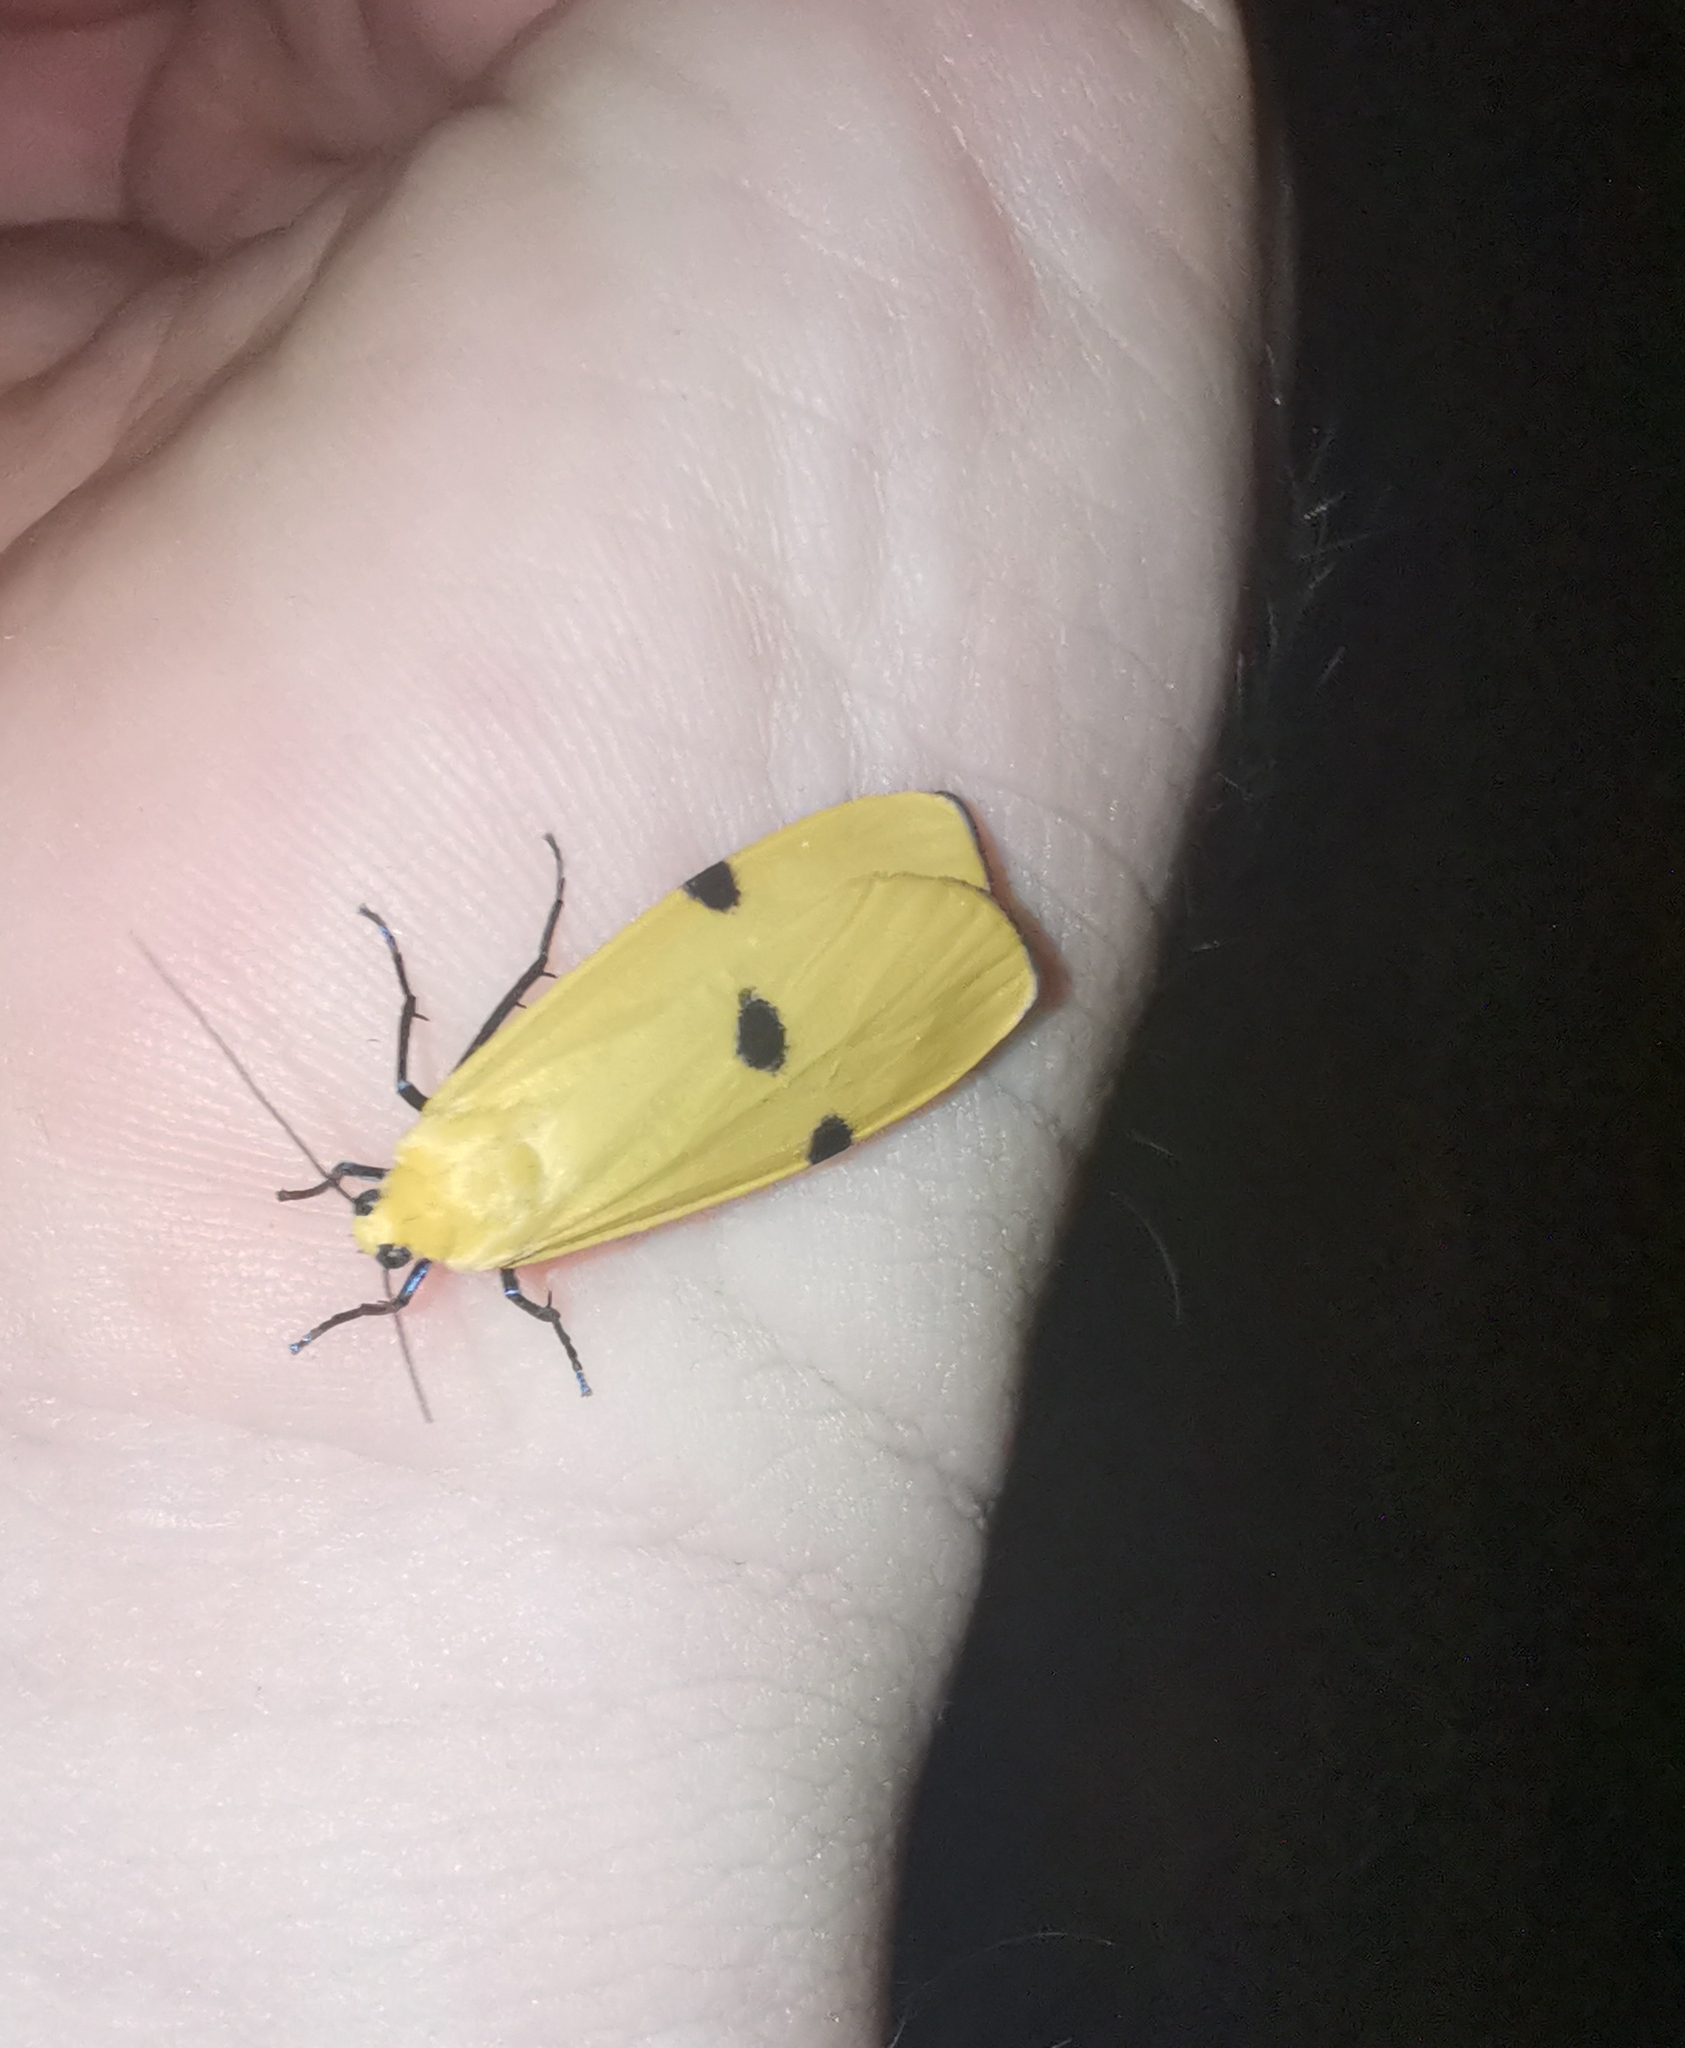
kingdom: Animalia
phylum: Arthropoda
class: Insecta
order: Lepidoptera
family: Erebidae
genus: Lithosia
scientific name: Lithosia quadra
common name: Four-spotted footman
